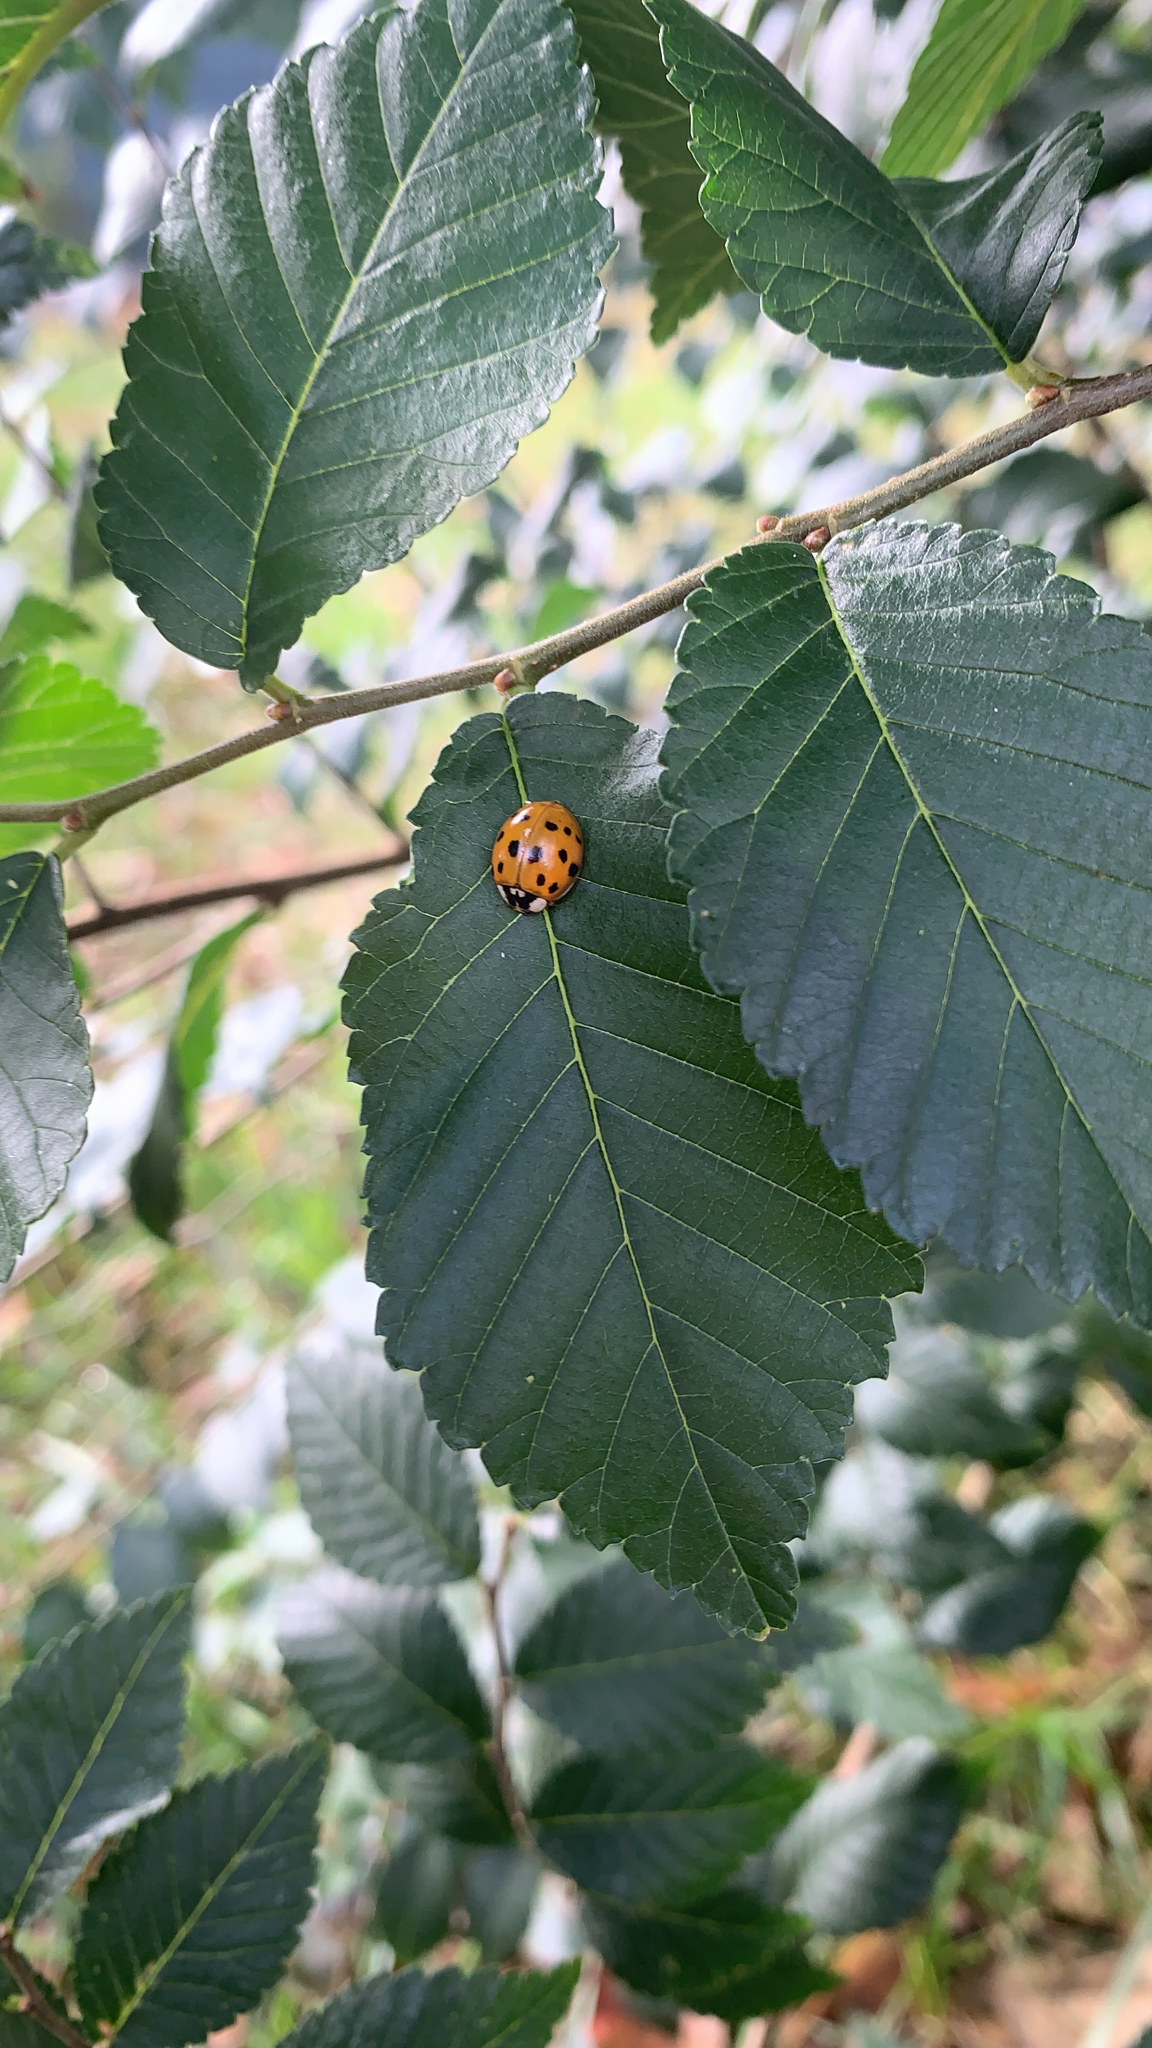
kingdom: Animalia
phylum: Arthropoda
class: Insecta
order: Coleoptera
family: Coccinellidae
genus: Harmonia
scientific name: Harmonia axyridis
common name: Harlequin ladybird
